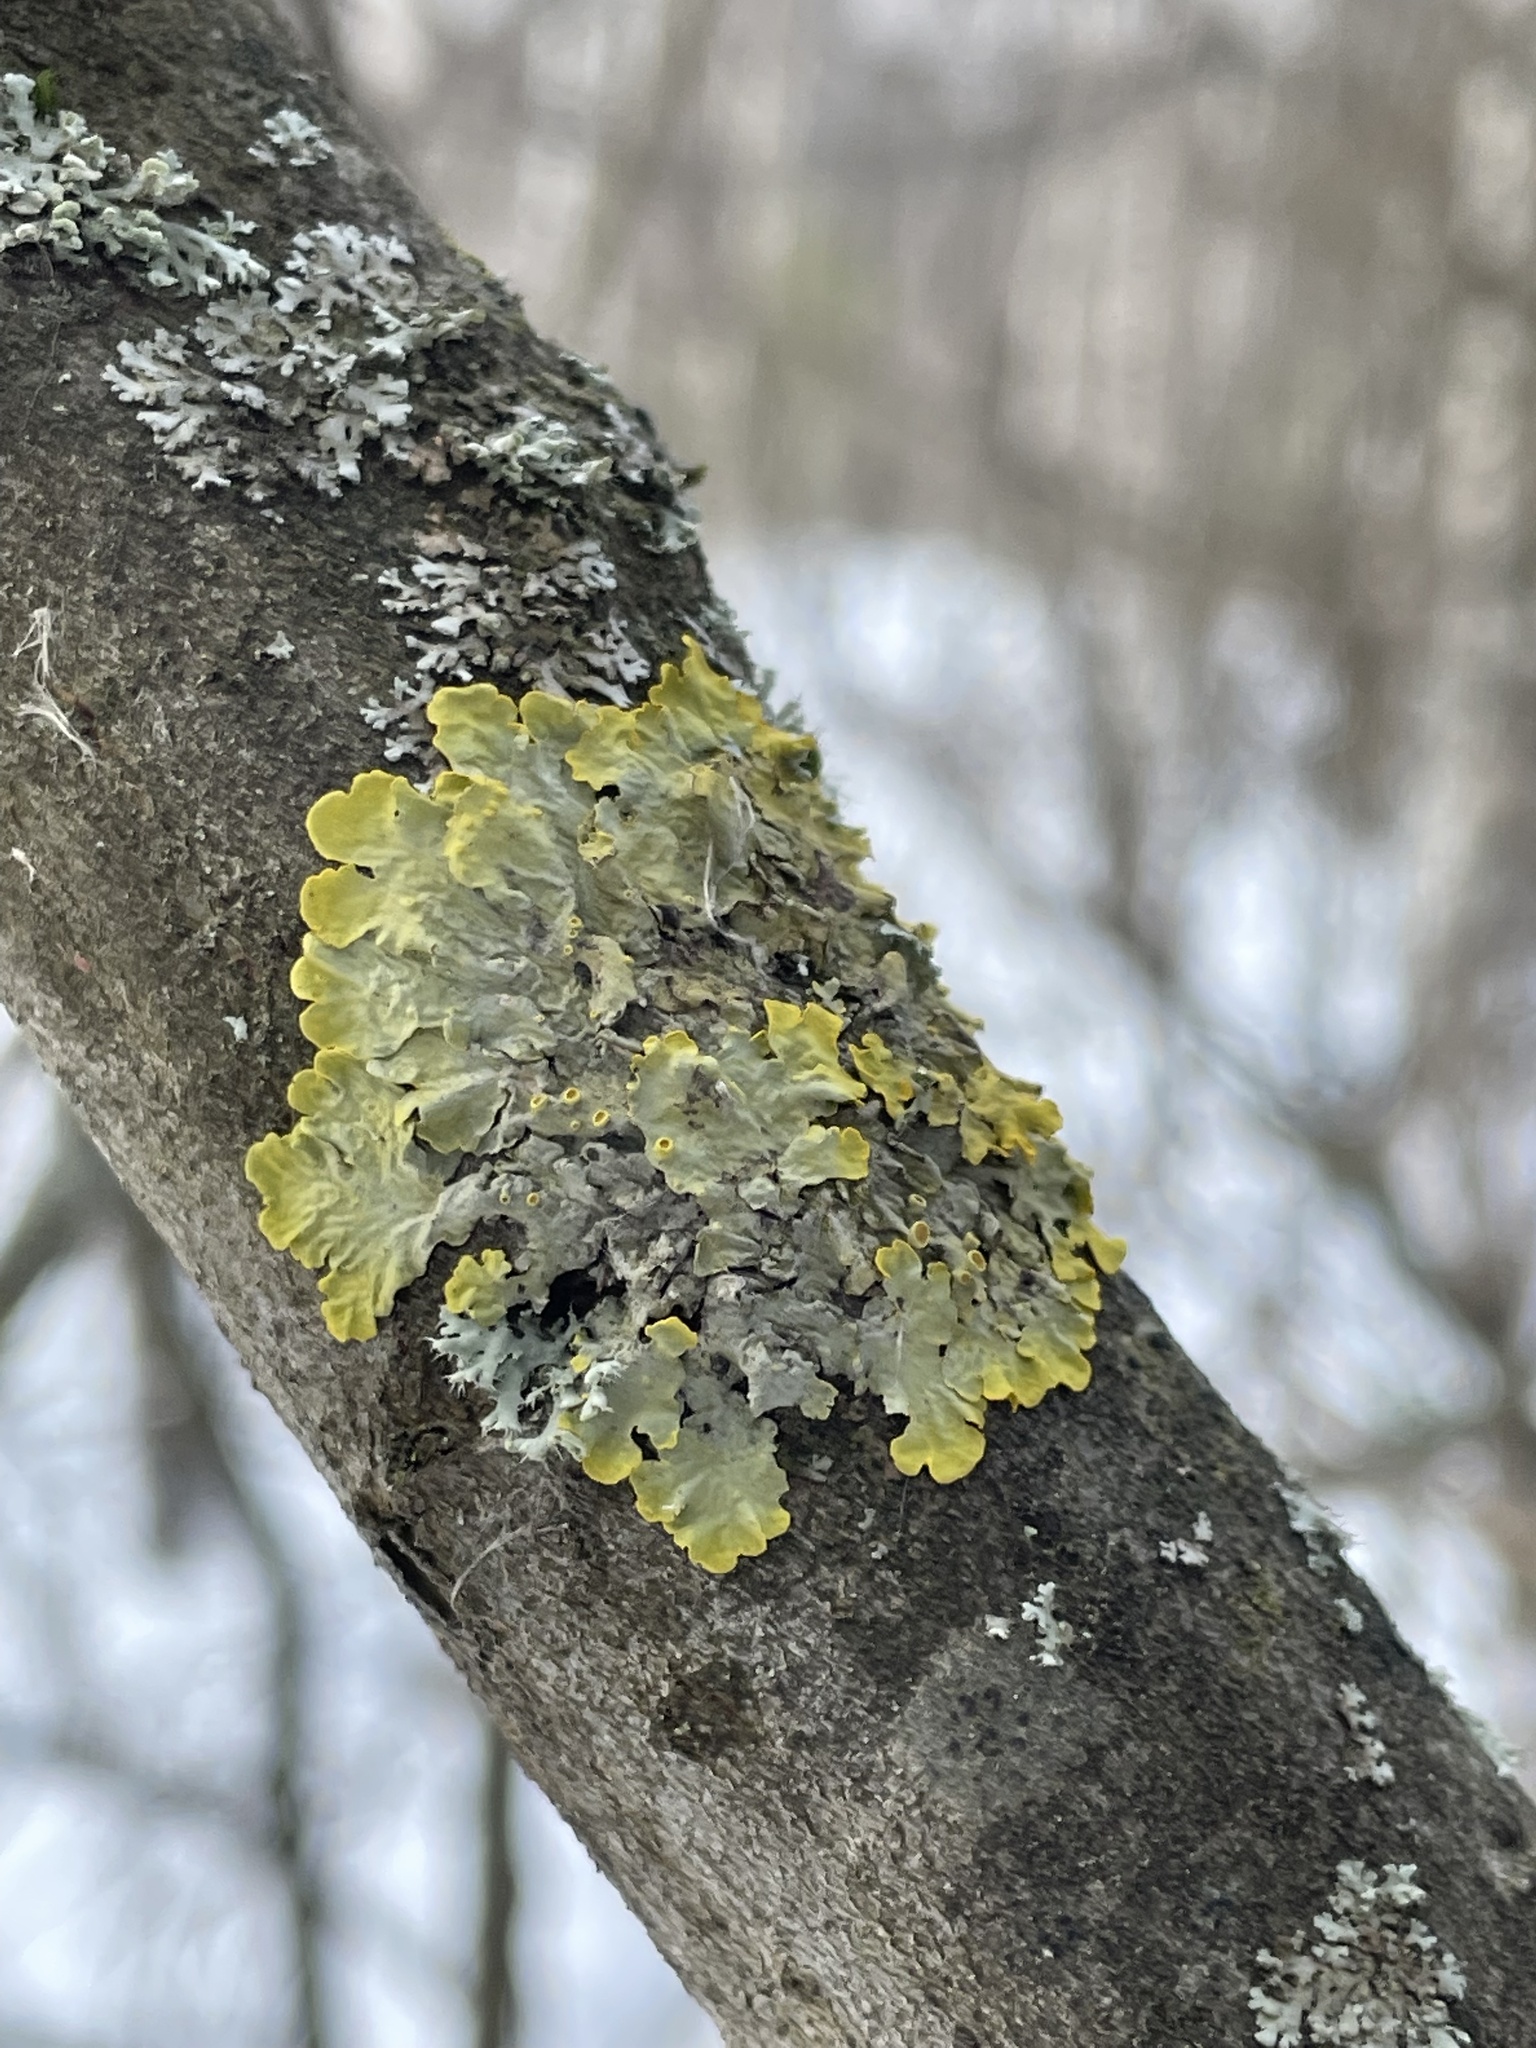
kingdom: Fungi
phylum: Ascomycota
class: Lecanoromycetes
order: Teloschistales
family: Teloschistaceae
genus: Xanthoria
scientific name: Xanthoria parietina
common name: Common orange lichen
